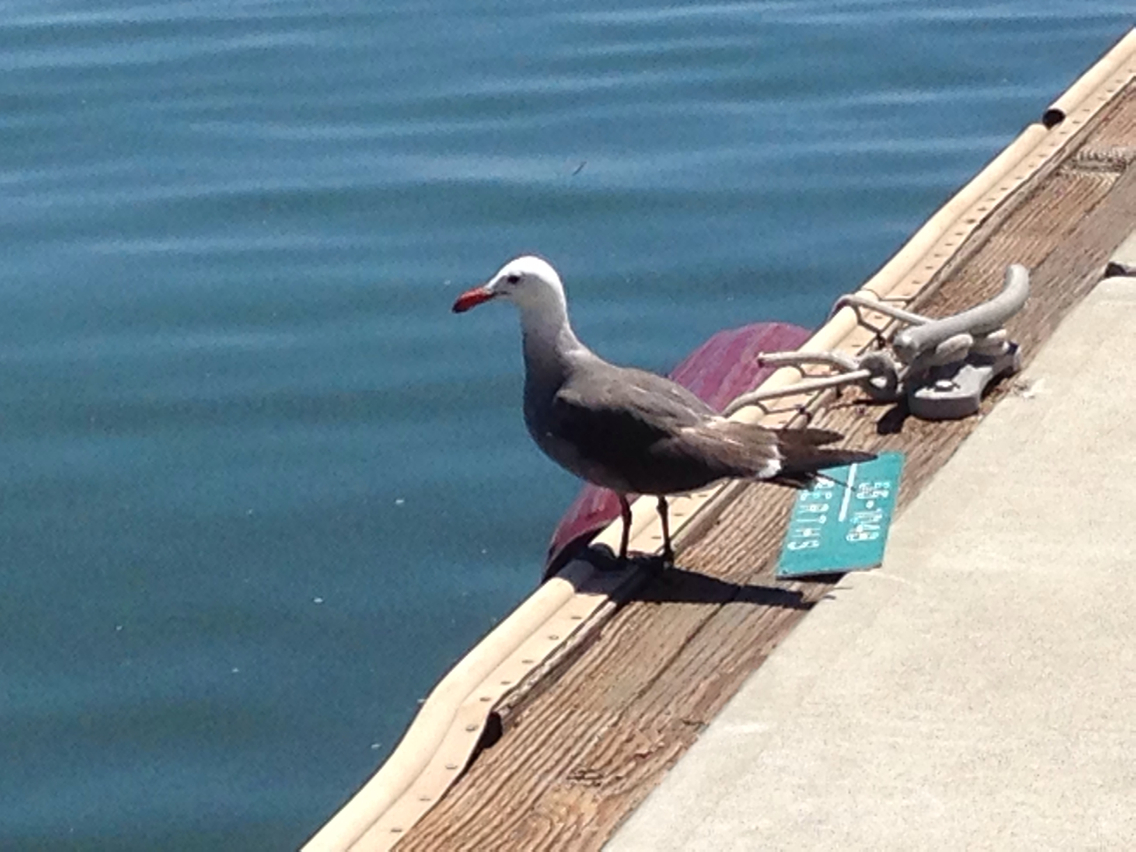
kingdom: Animalia
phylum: Chordata
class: Aves
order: Charadriiformes
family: Laridae
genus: Larus
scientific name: Larus heermanni
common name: Heermann's gull
